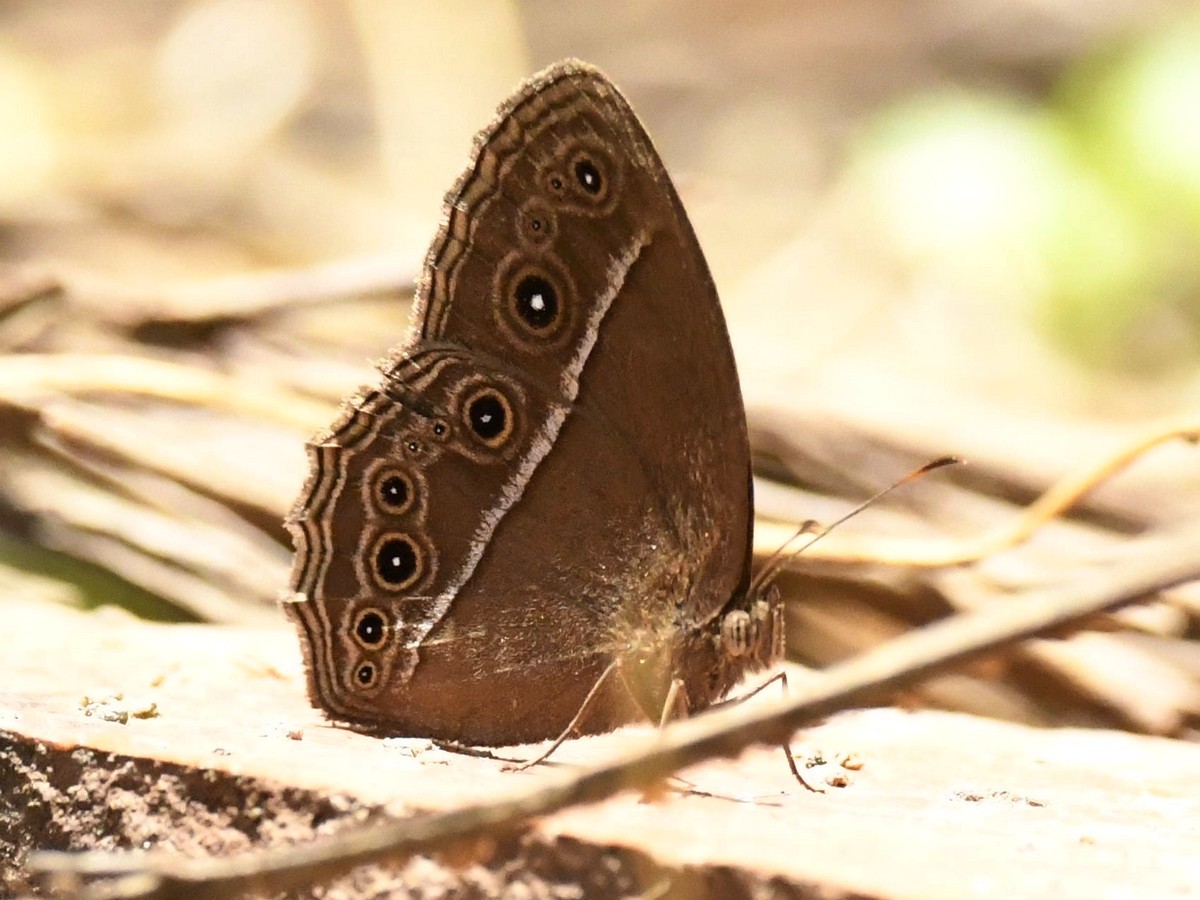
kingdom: Animalia
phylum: Arthropoda
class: Insecta
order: Lepidoptera
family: Nymphalidae
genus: Mycalesis
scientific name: Mycalesis perseus
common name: Dingy bushbrown
